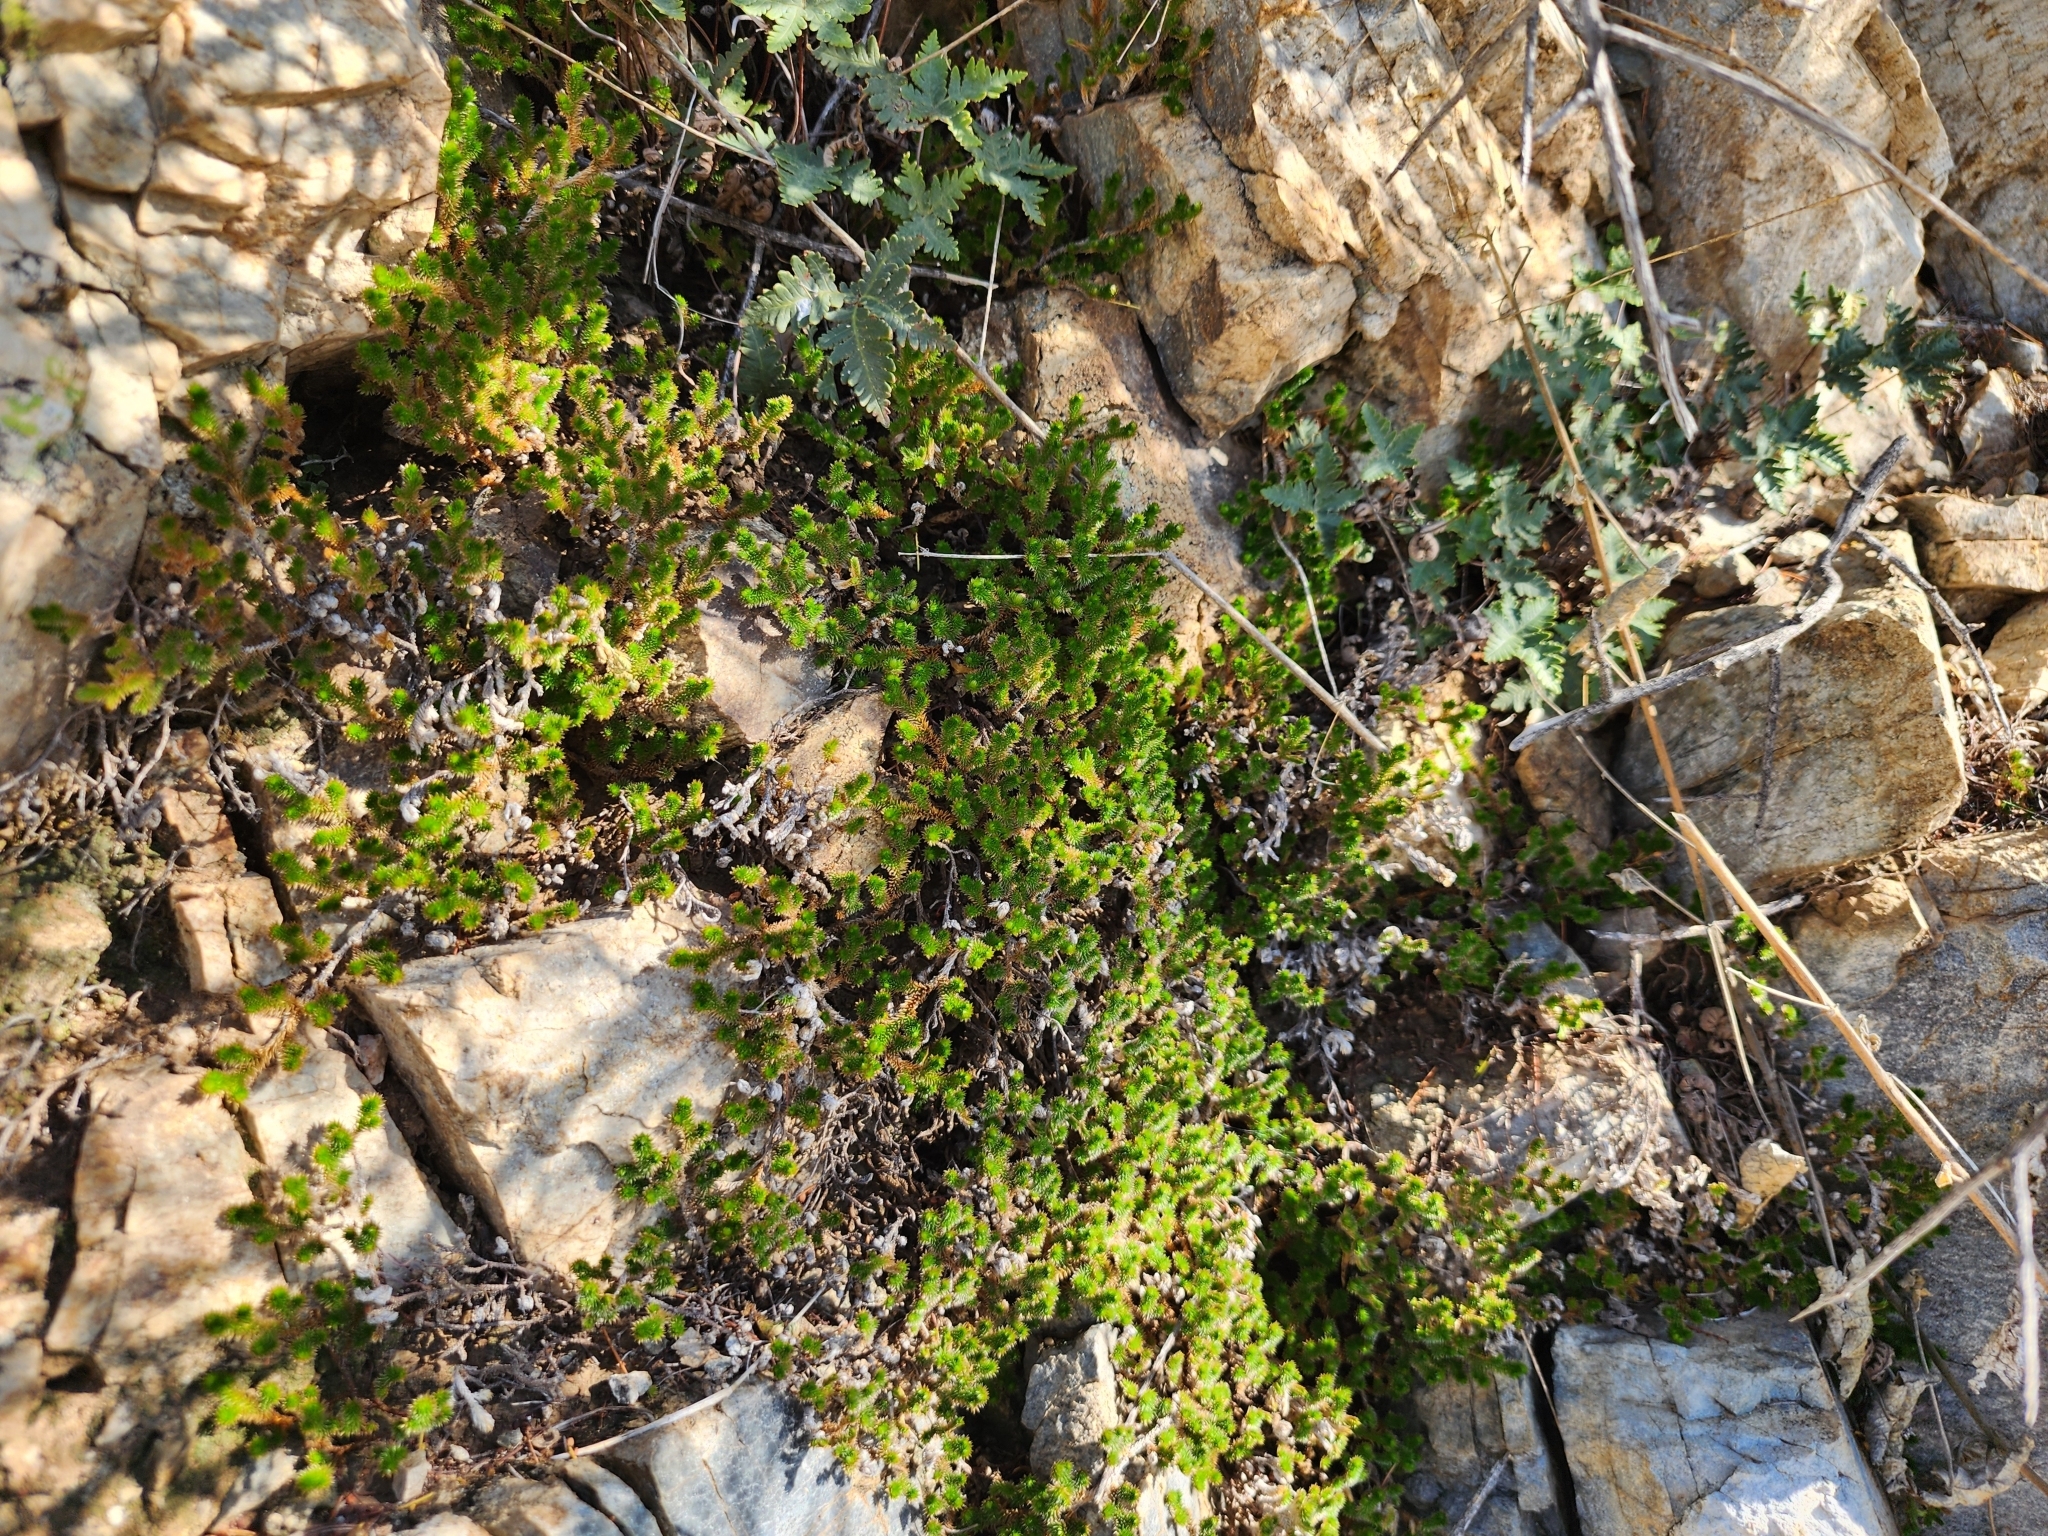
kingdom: Plantae
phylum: Tracheophyta
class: Lycopodiopsida
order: Selaginellales
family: Selaginellaceae
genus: Selaginella
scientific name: Selaginella arizonica
